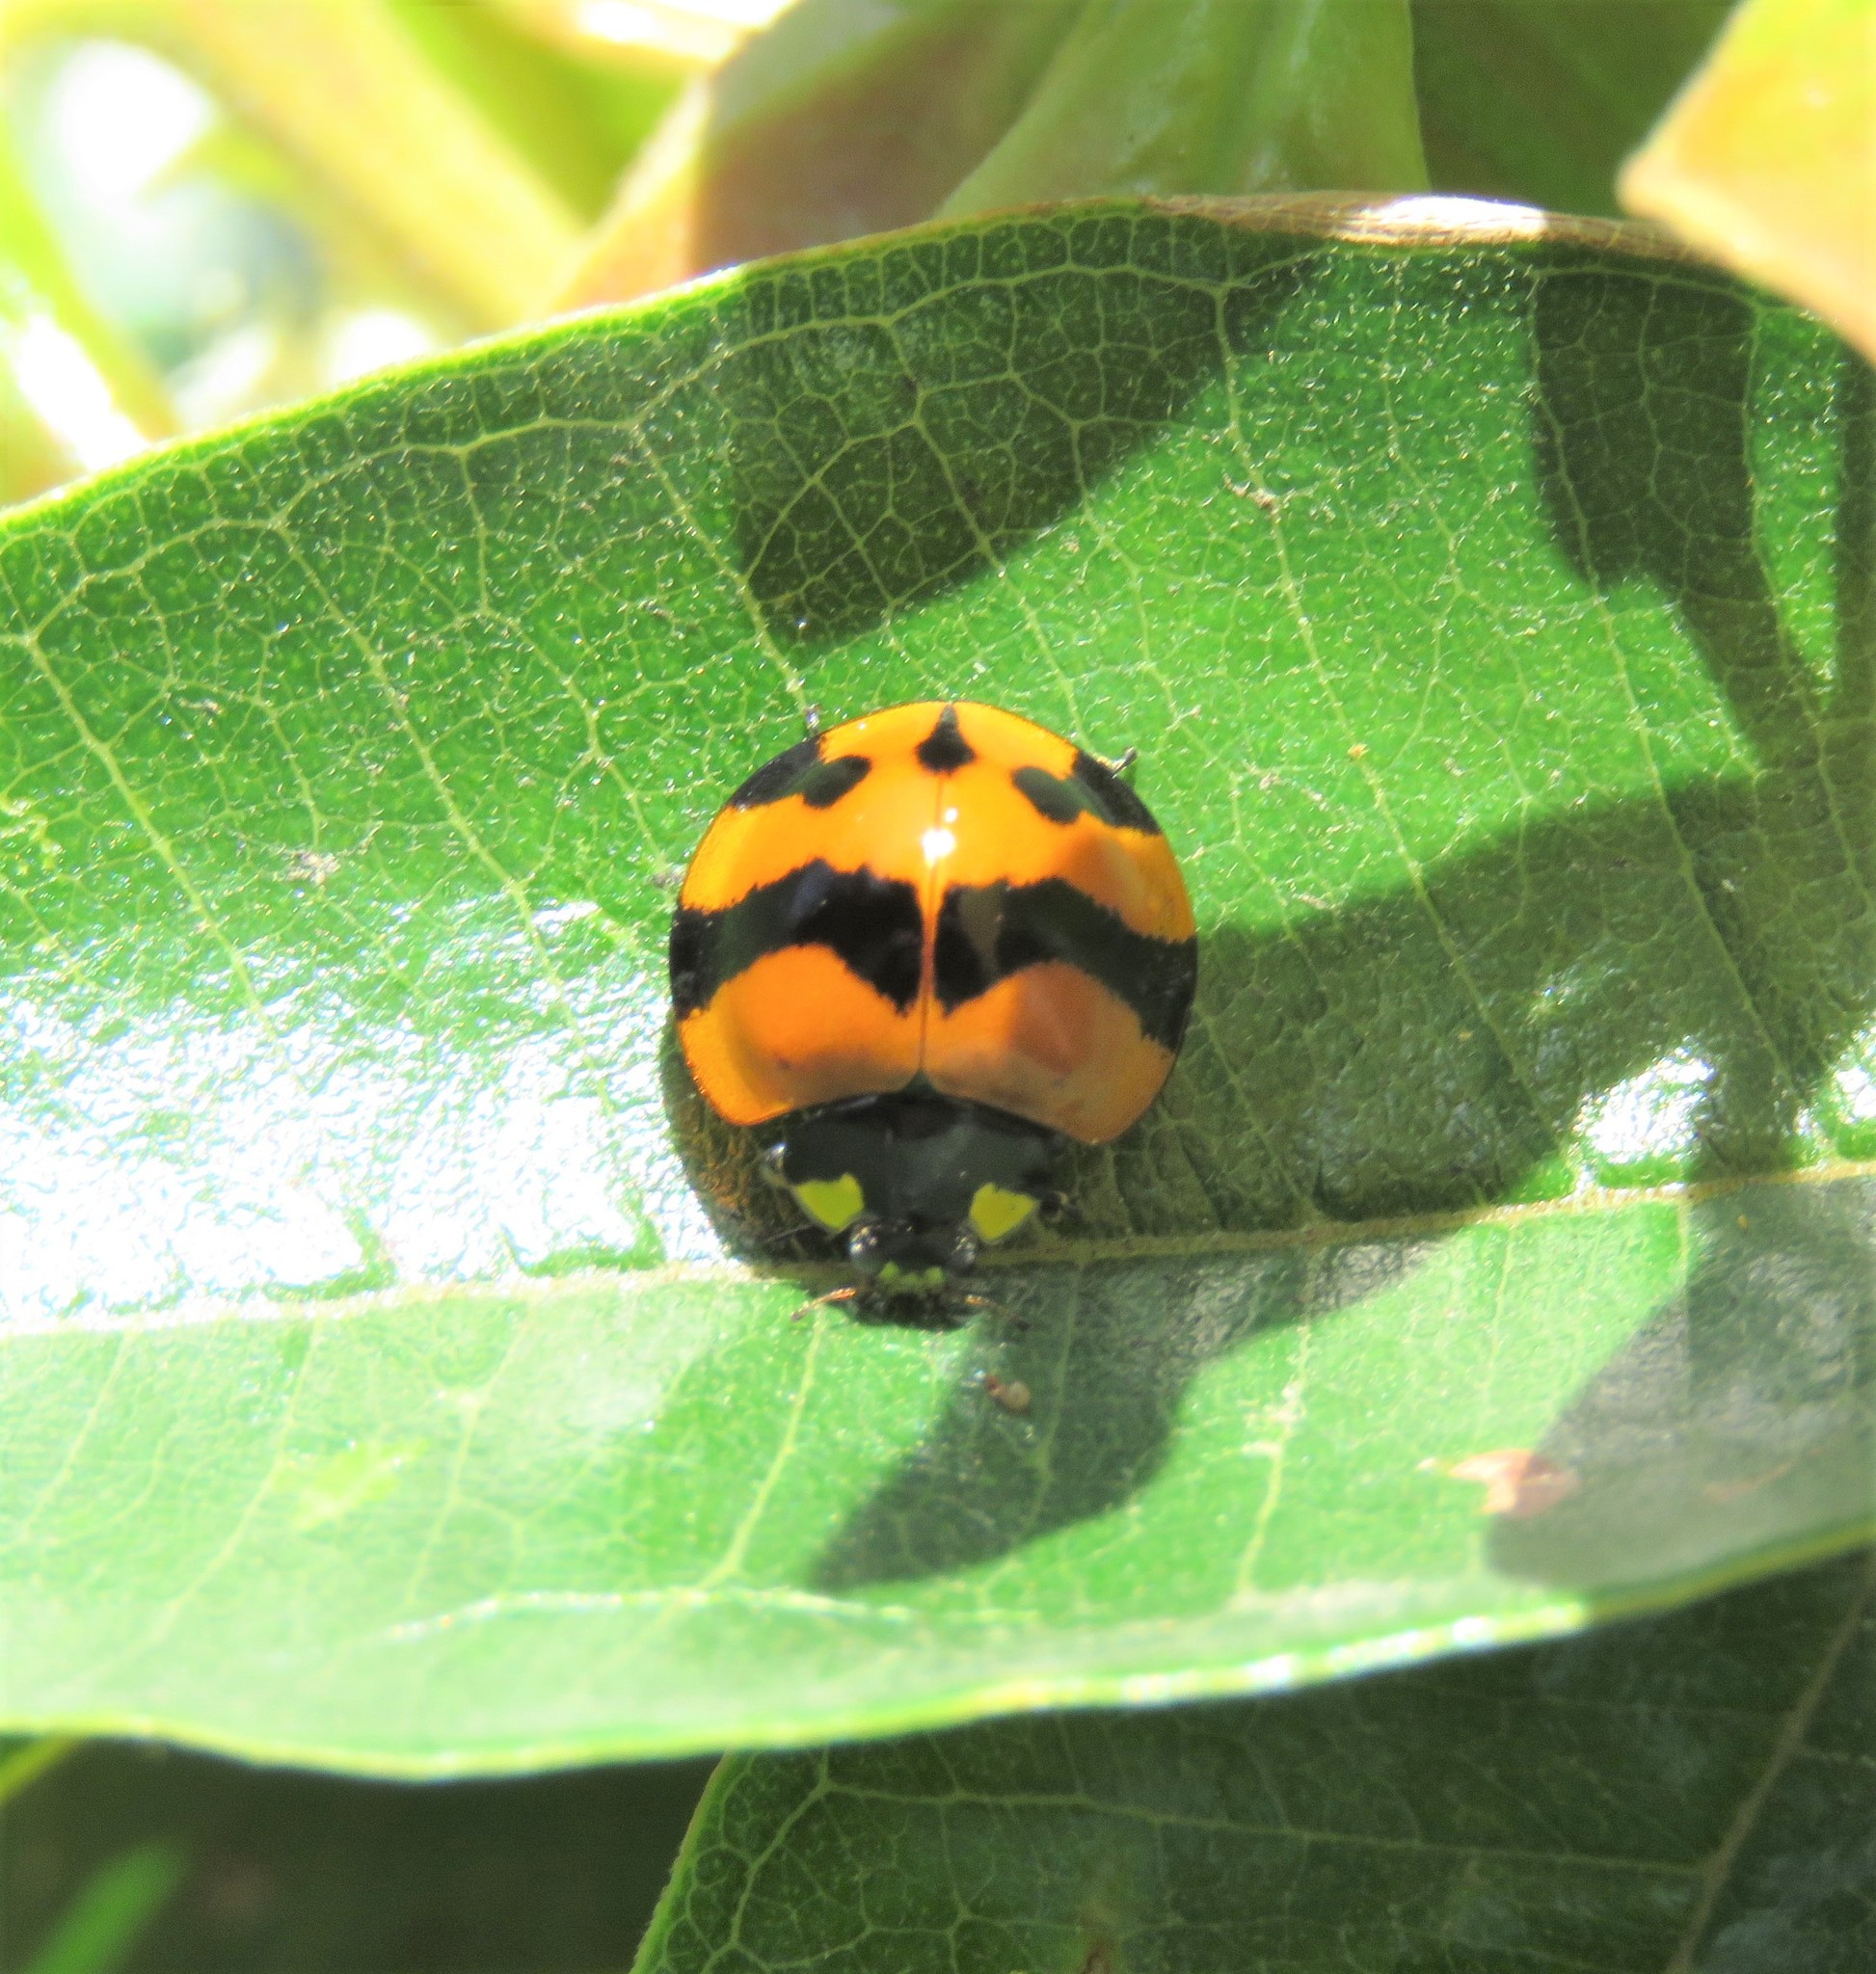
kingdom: Animalia
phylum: Arthropoda
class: Insecta
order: Coleoptera
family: Coccinellidae
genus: Neda
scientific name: Neda norrisi
